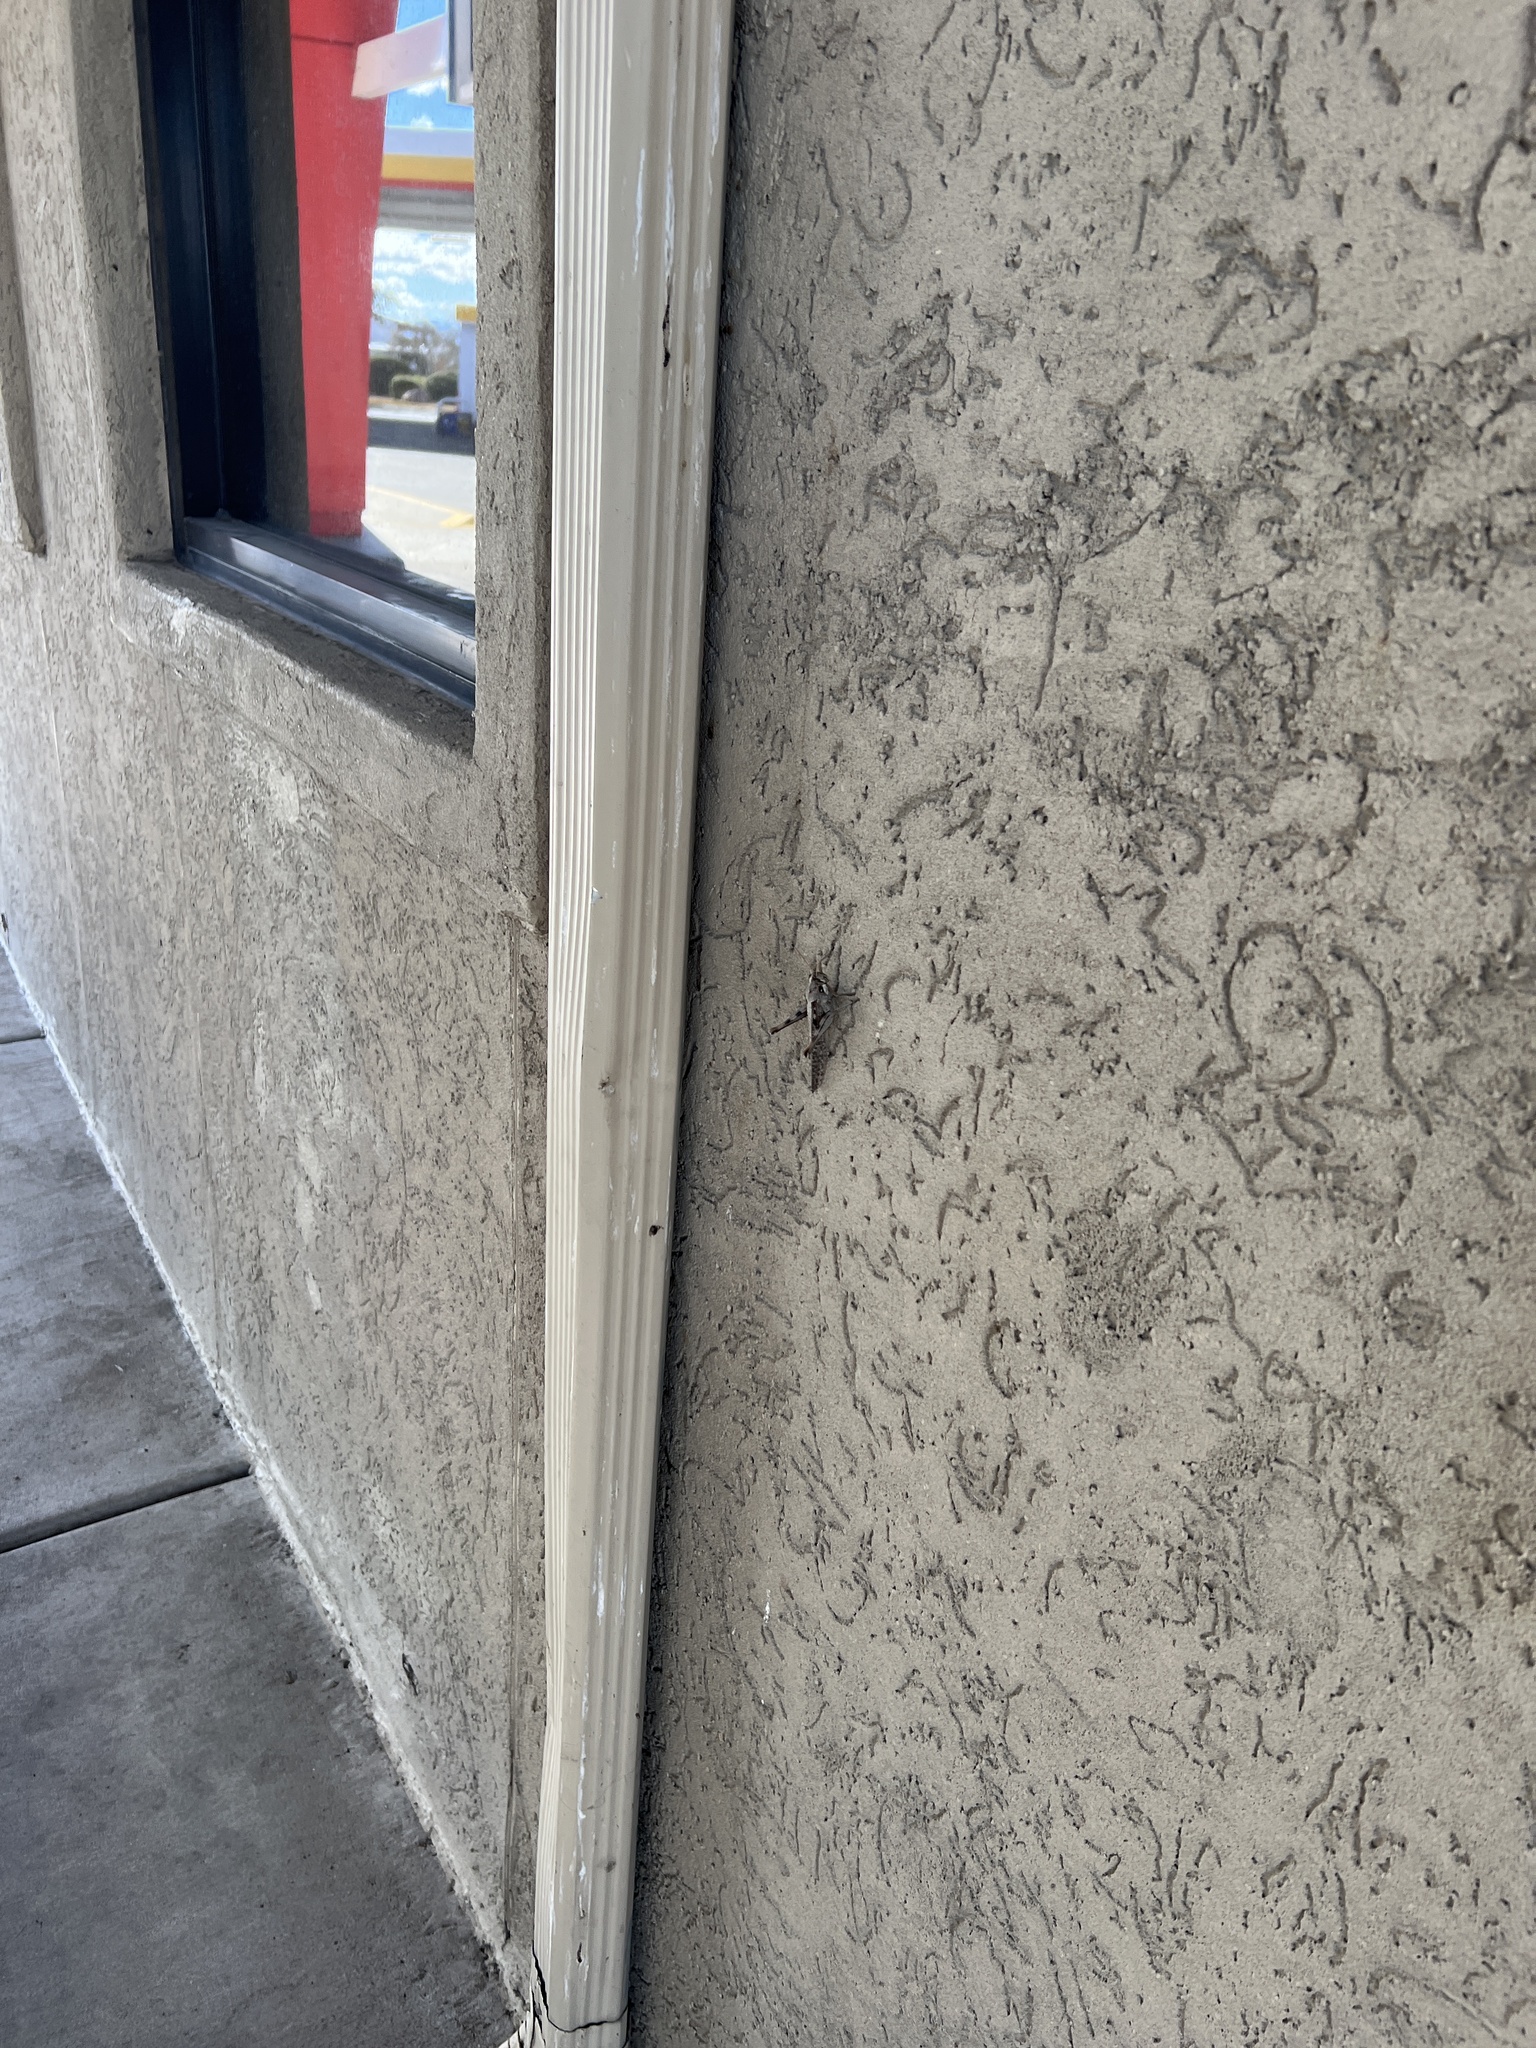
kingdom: Animalia
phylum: Arthropoda
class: Insecta
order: Orthoptera
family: Acrididae
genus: Schistocerca
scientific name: Schistocerca nitens
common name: Vagrant grasshopper
